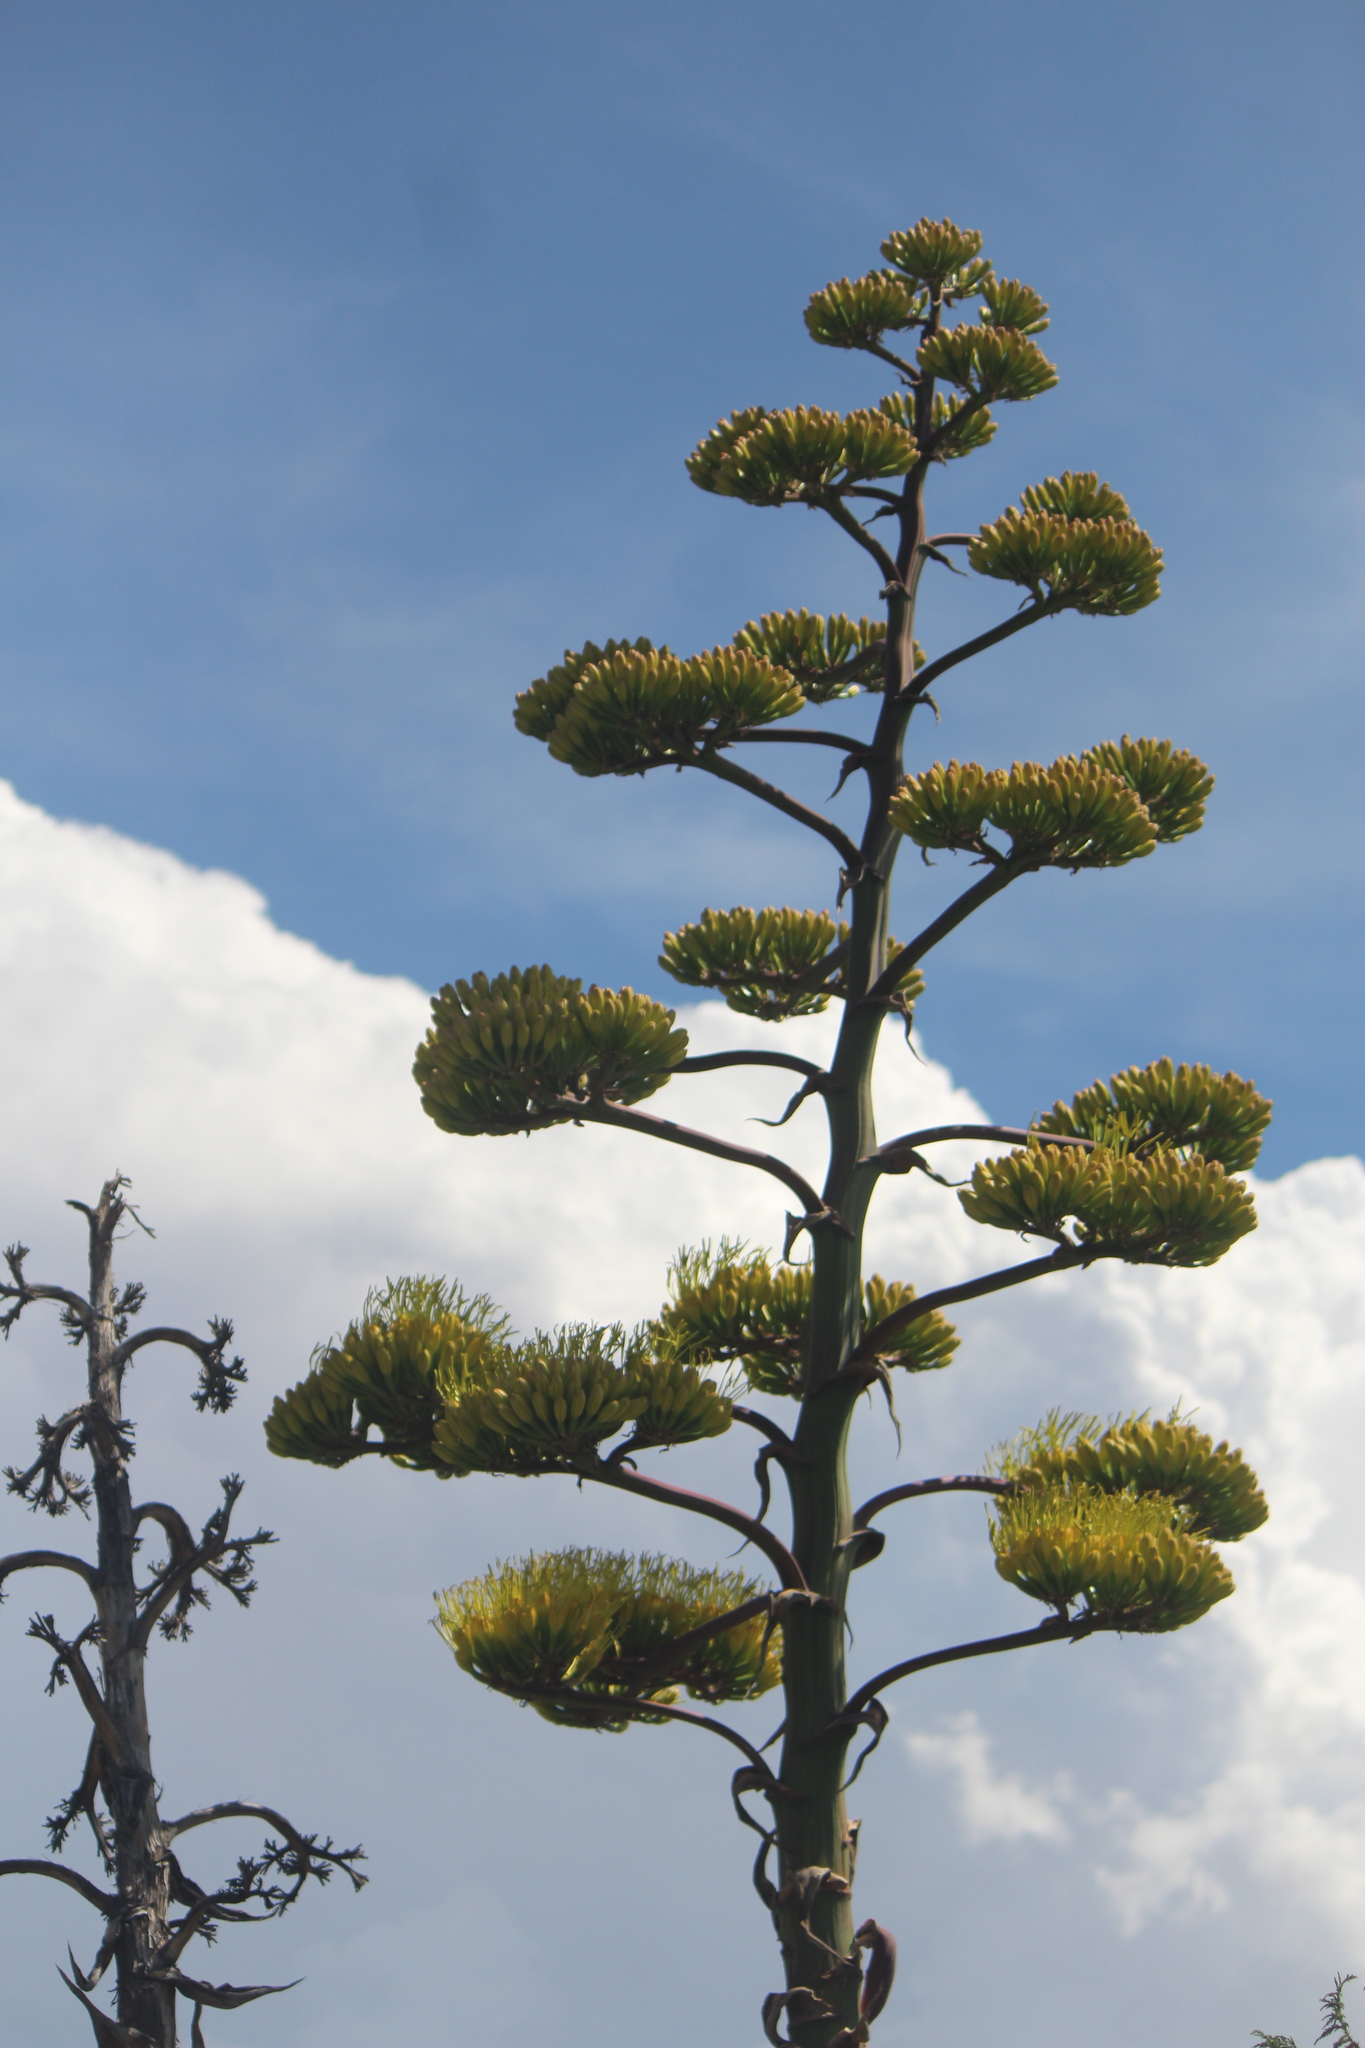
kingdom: Plantae
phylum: Tracheophyta
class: Liliopsida
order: Asparagales
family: Asparagaceae
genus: Agave
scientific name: Agave salmiana
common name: Pulque agave
